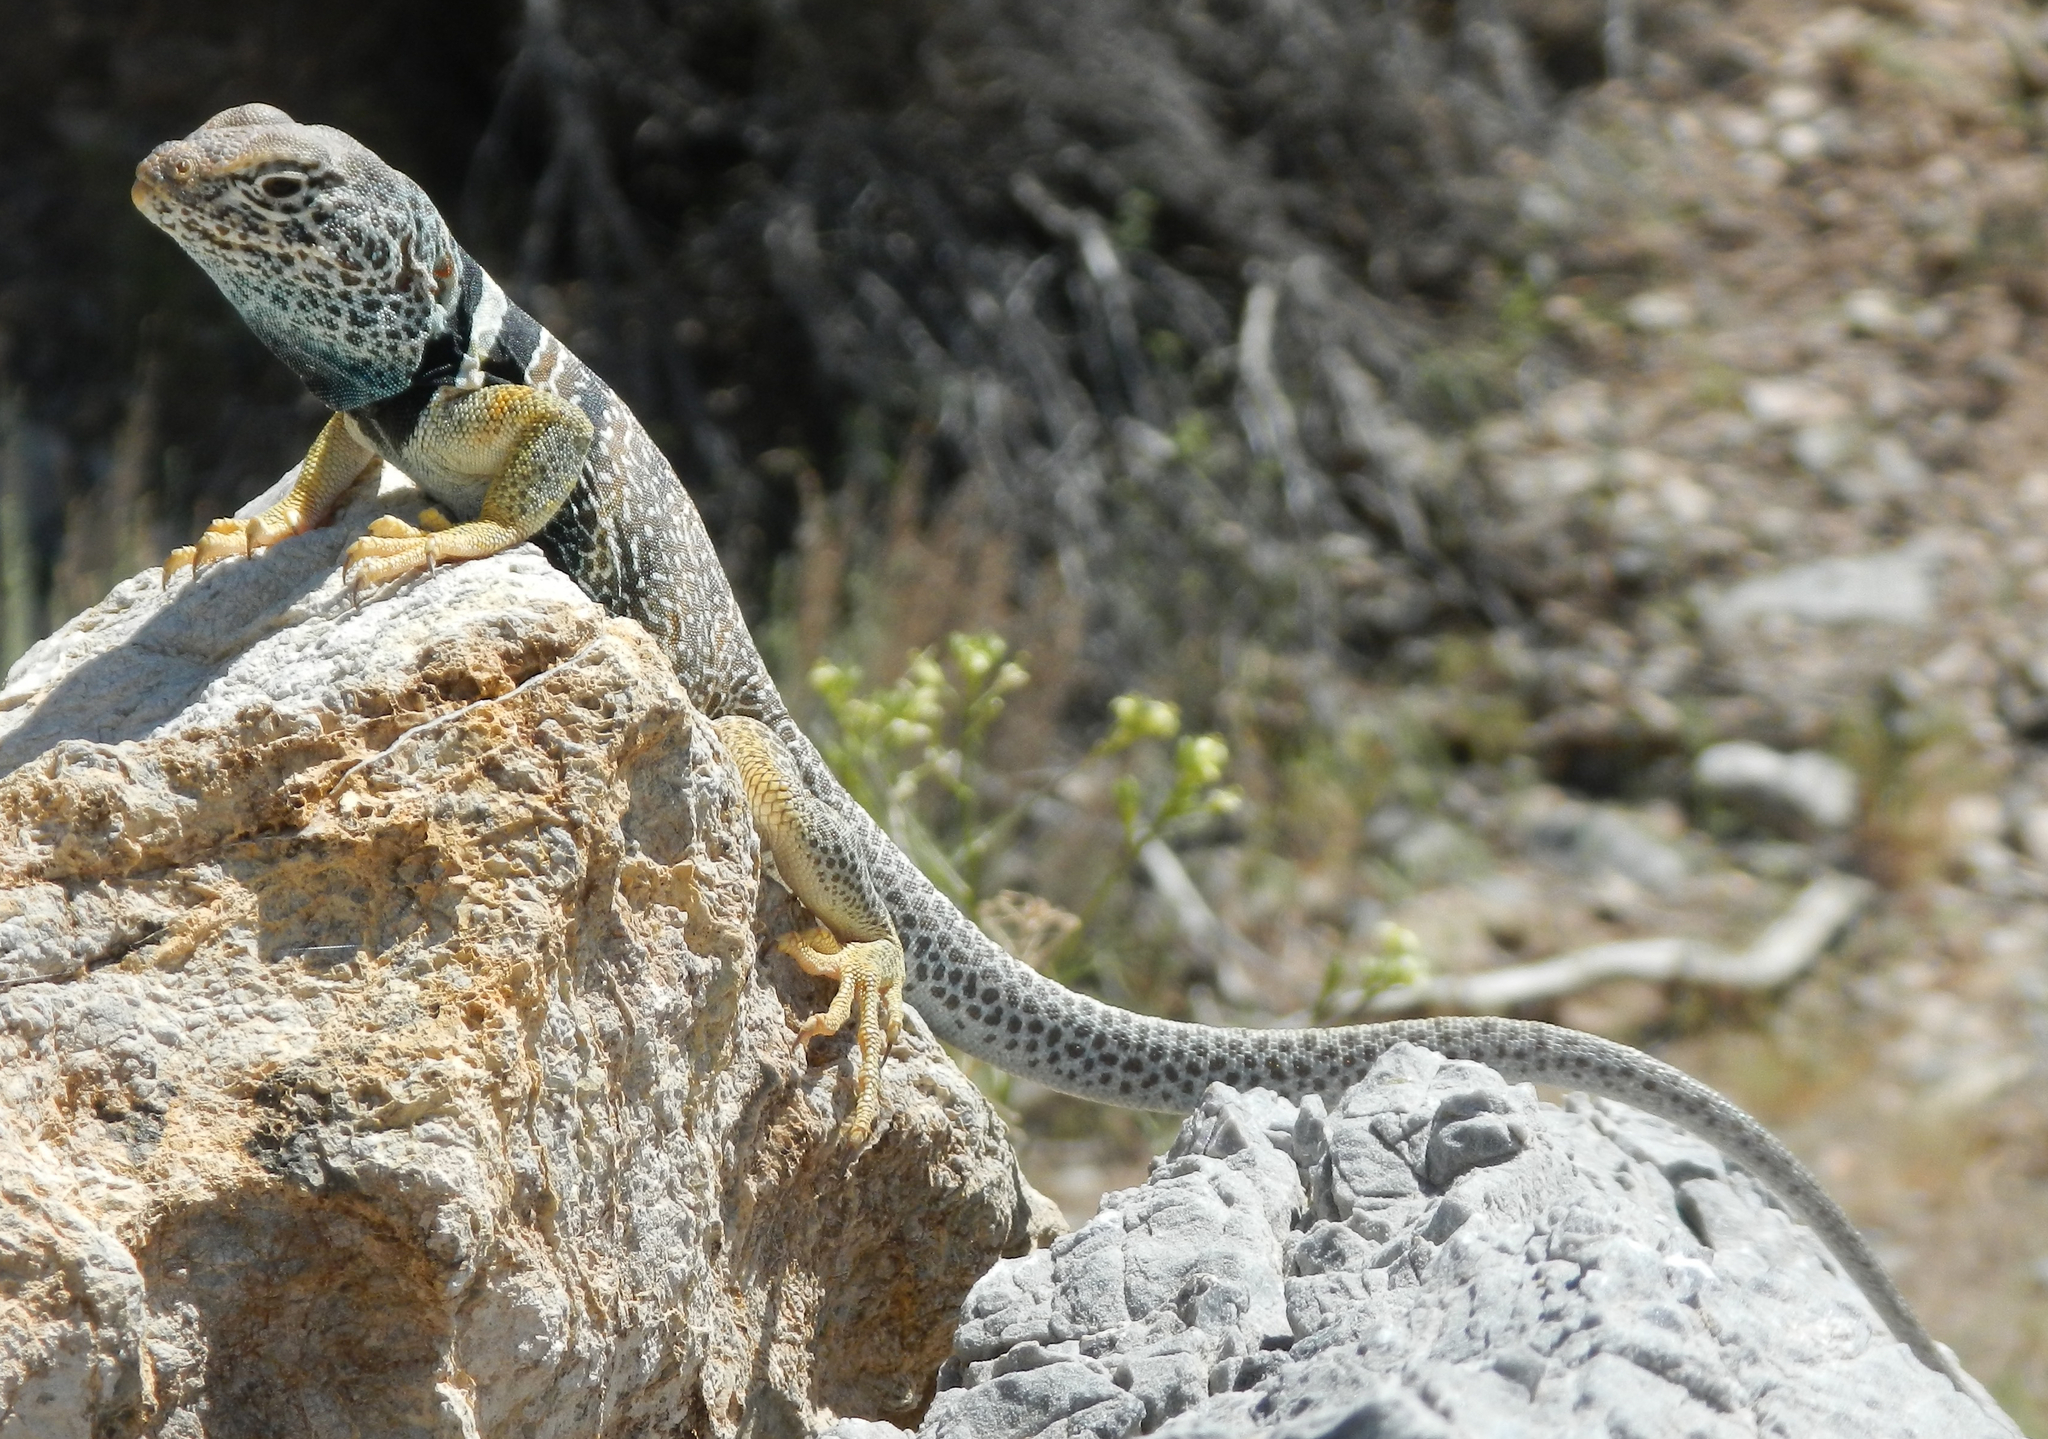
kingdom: Animalia
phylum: Chordata
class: Squamata
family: Crotaphytidae
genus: Crotaphytus
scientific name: Crotaphytus bicinctores
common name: Mojave black-collared lizard
